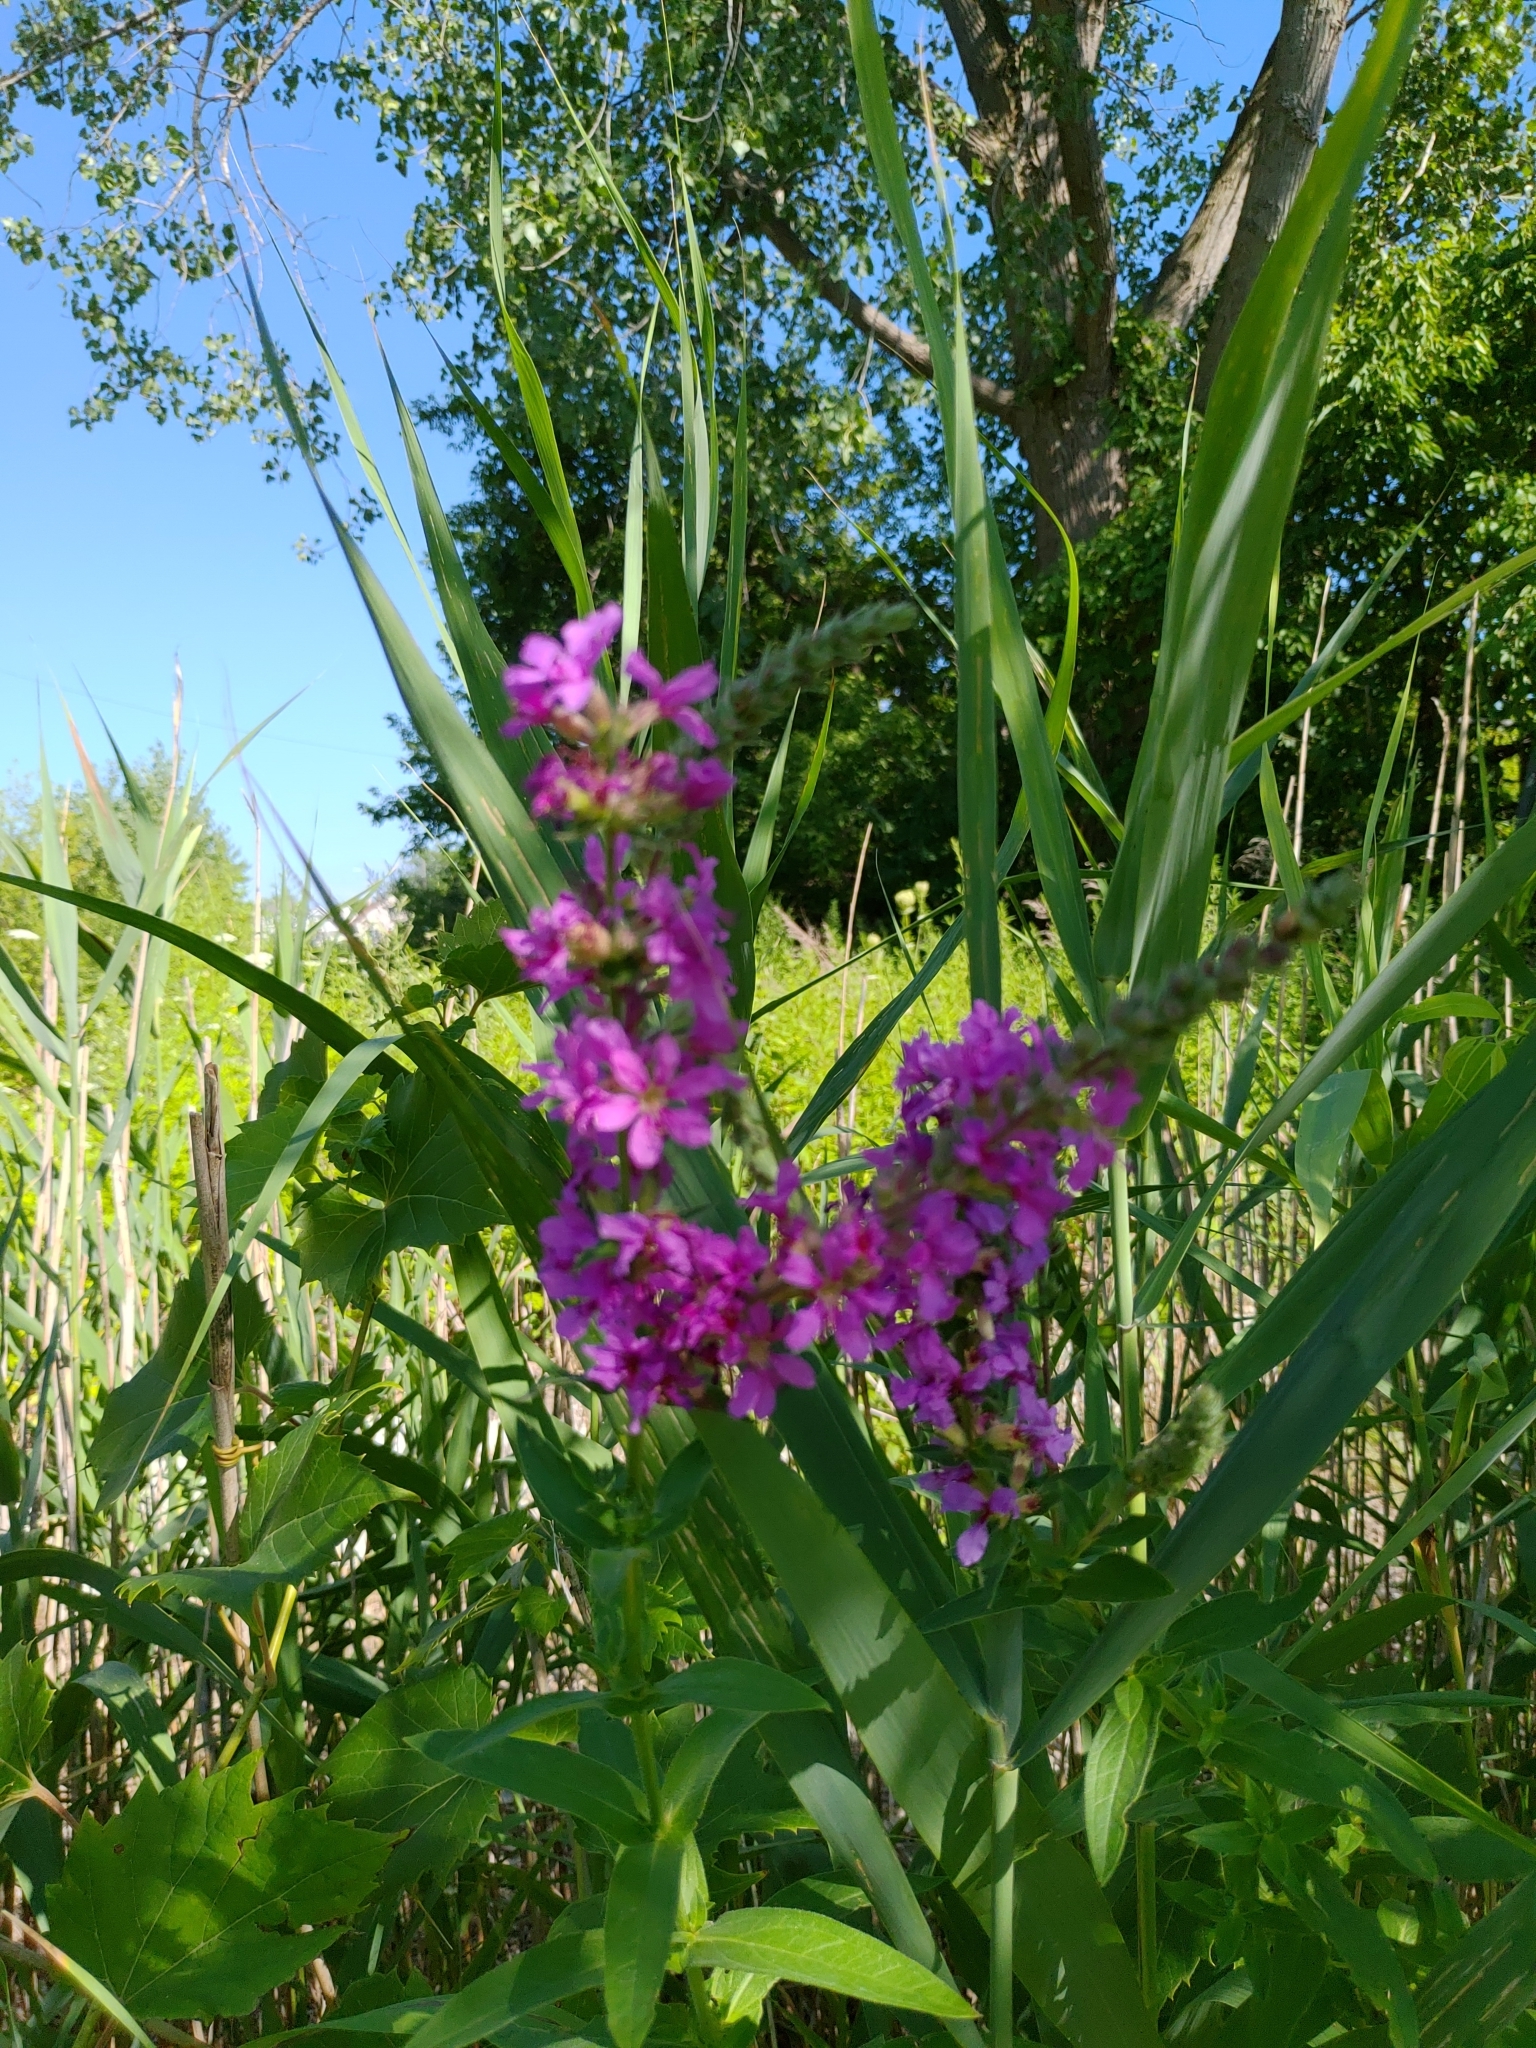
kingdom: Plantae
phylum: Tracheophyta
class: Magnoliopsida
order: Myrtales
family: Lythraceae
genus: Lythrum
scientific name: Lythrum salicaria
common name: Purple loosestrife
